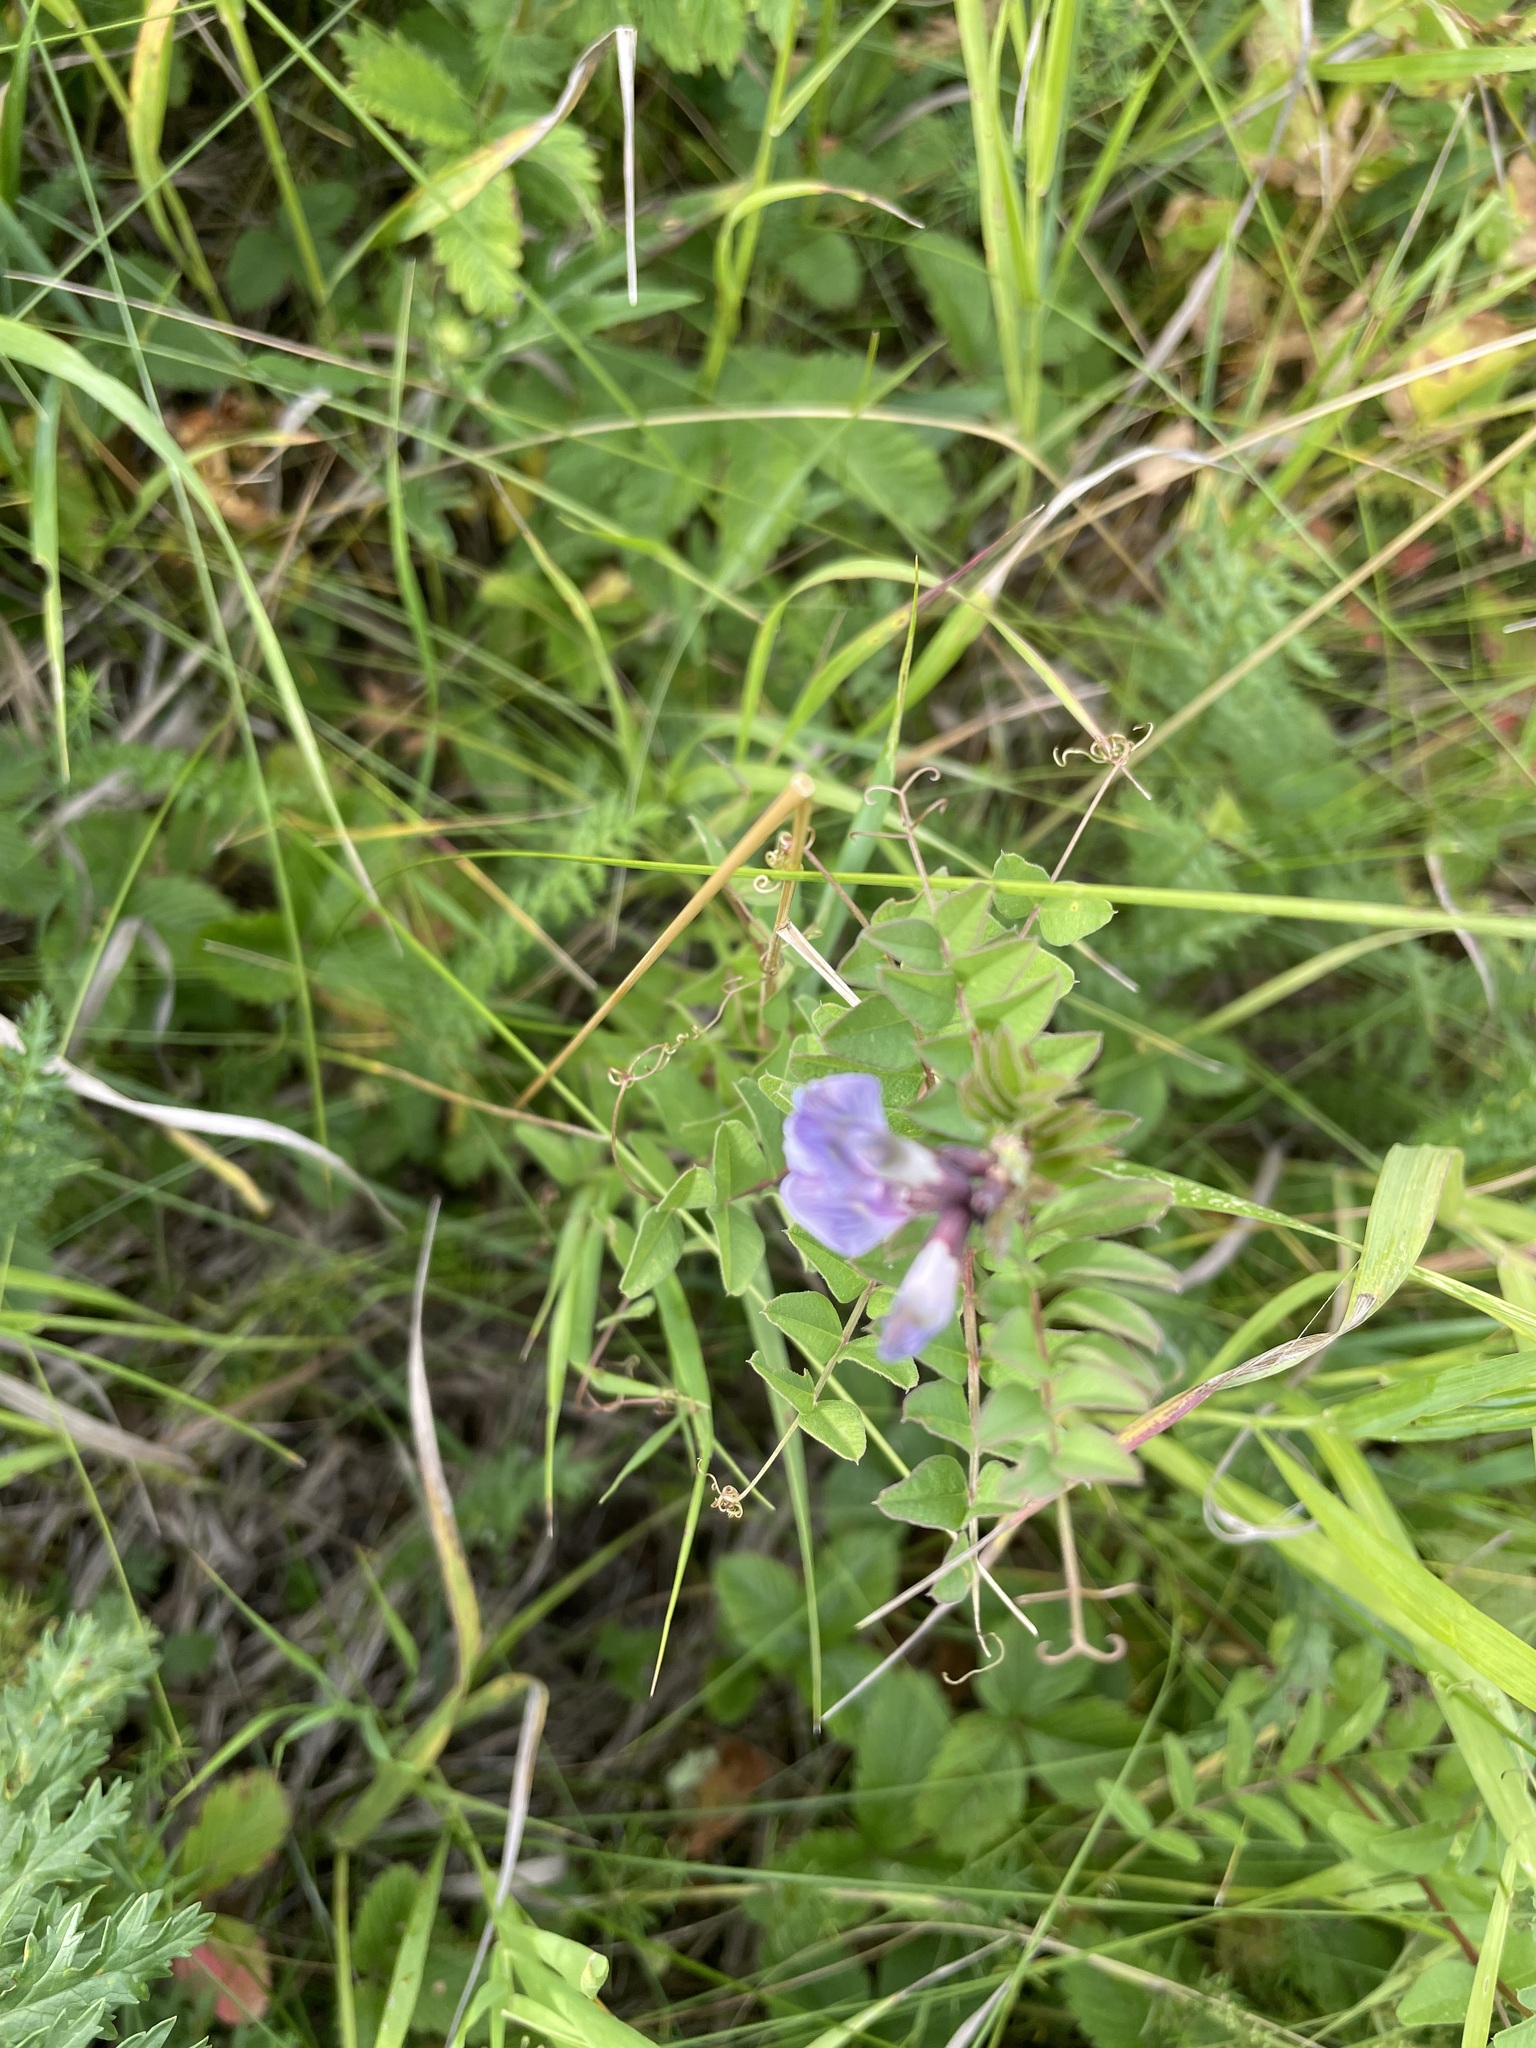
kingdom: Plantae
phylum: Tracheophyta
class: Magnoliopsida
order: Fabales
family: Fabaceae
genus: Vicia
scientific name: Vicia sepium
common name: Bush vetch
